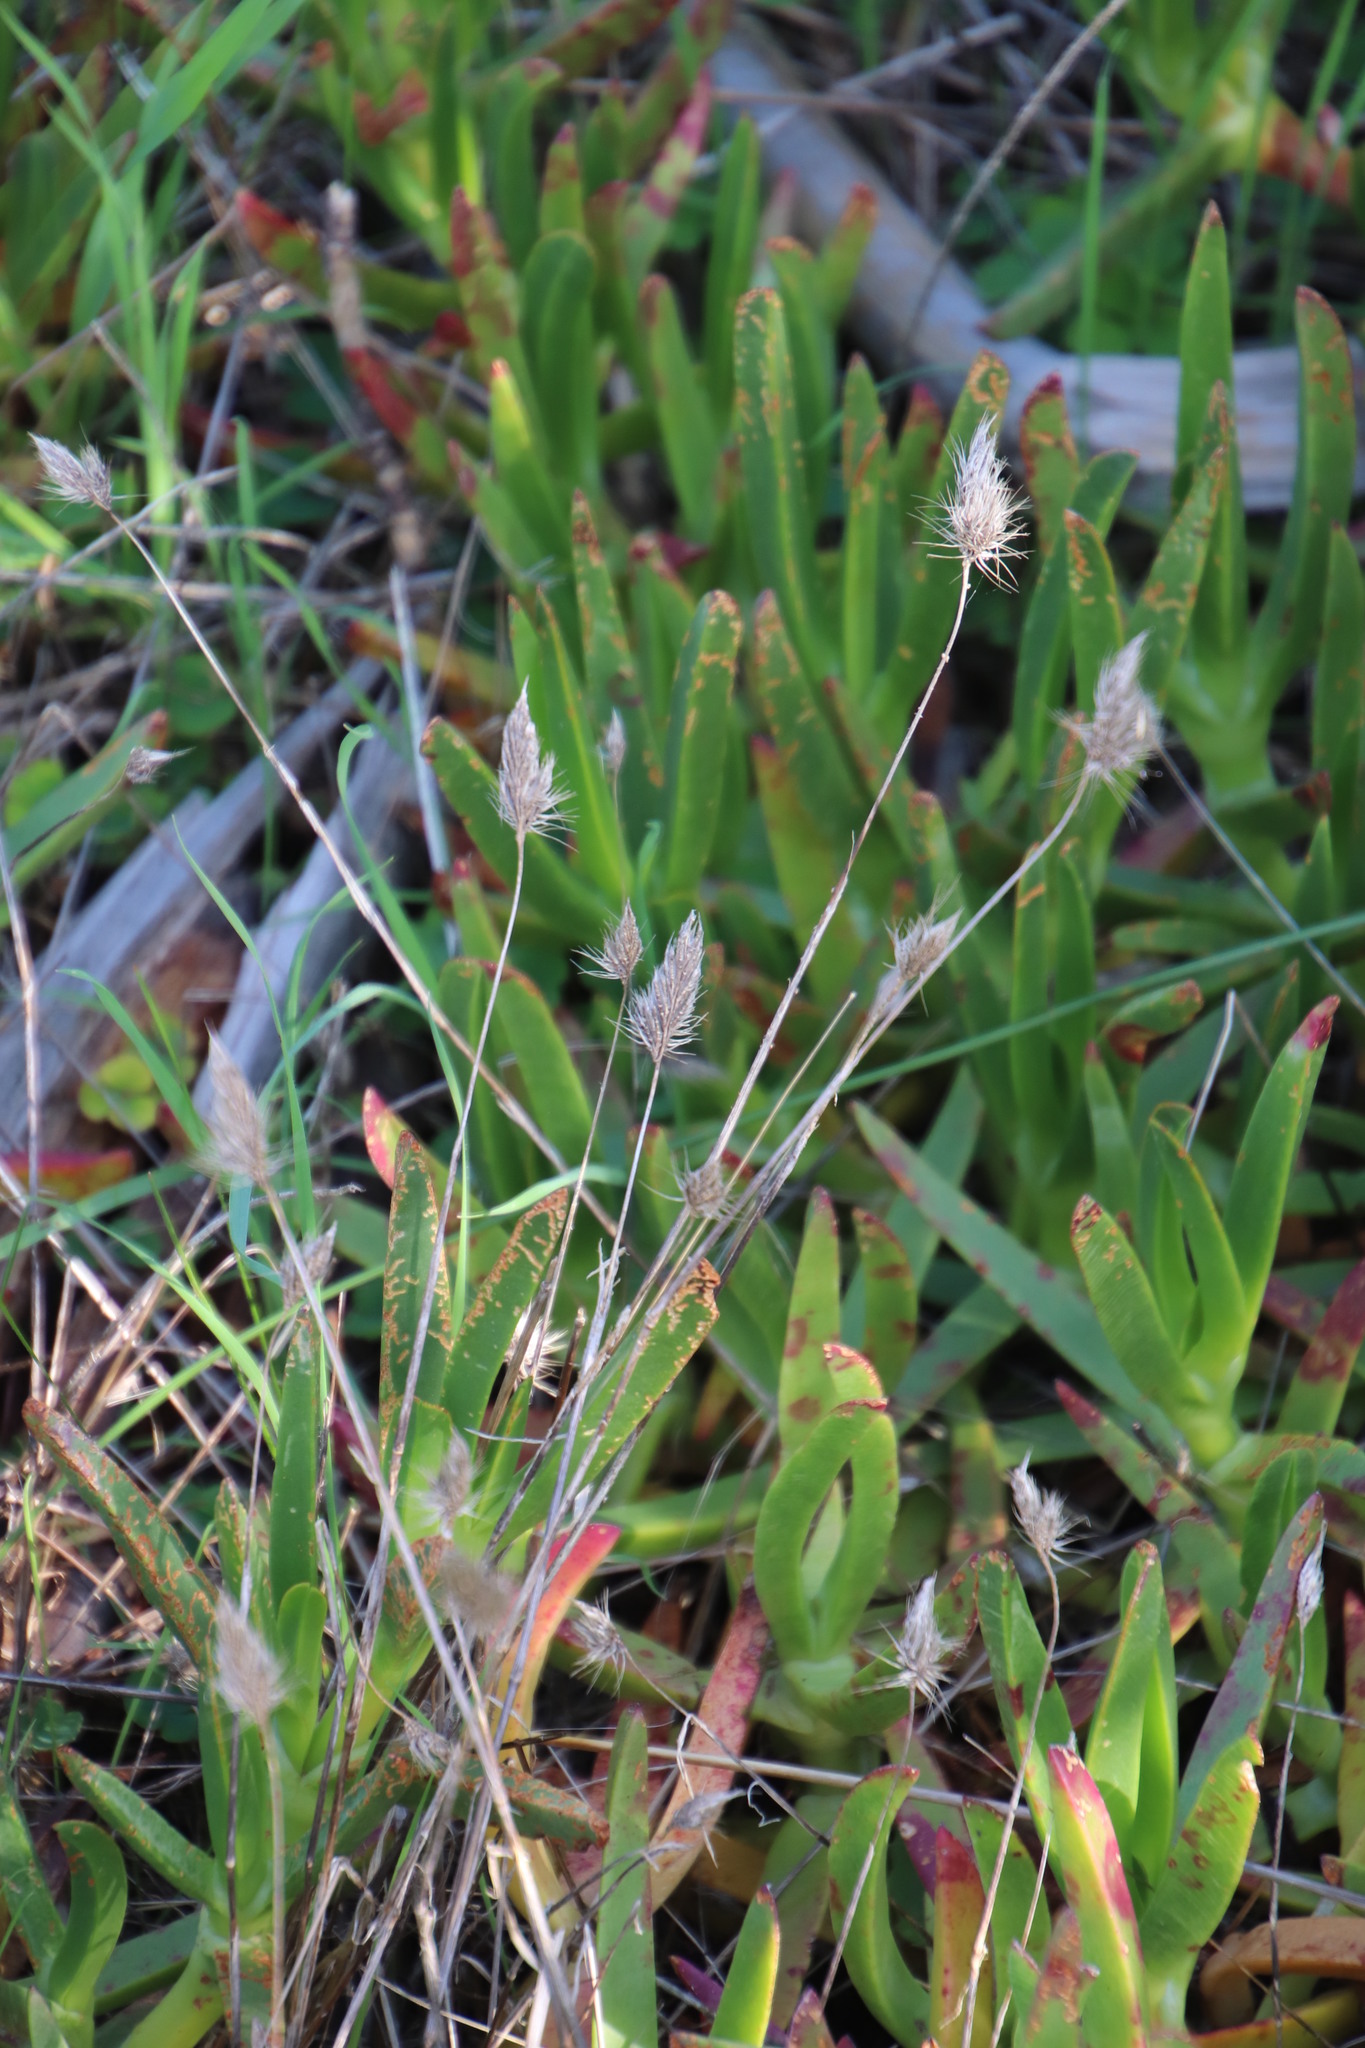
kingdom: Plantae
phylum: Tracheophyta
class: Liliopsida
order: Poales
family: Poaceae
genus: Lagurus
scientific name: Lagurus ovatus
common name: Hare's-tail
